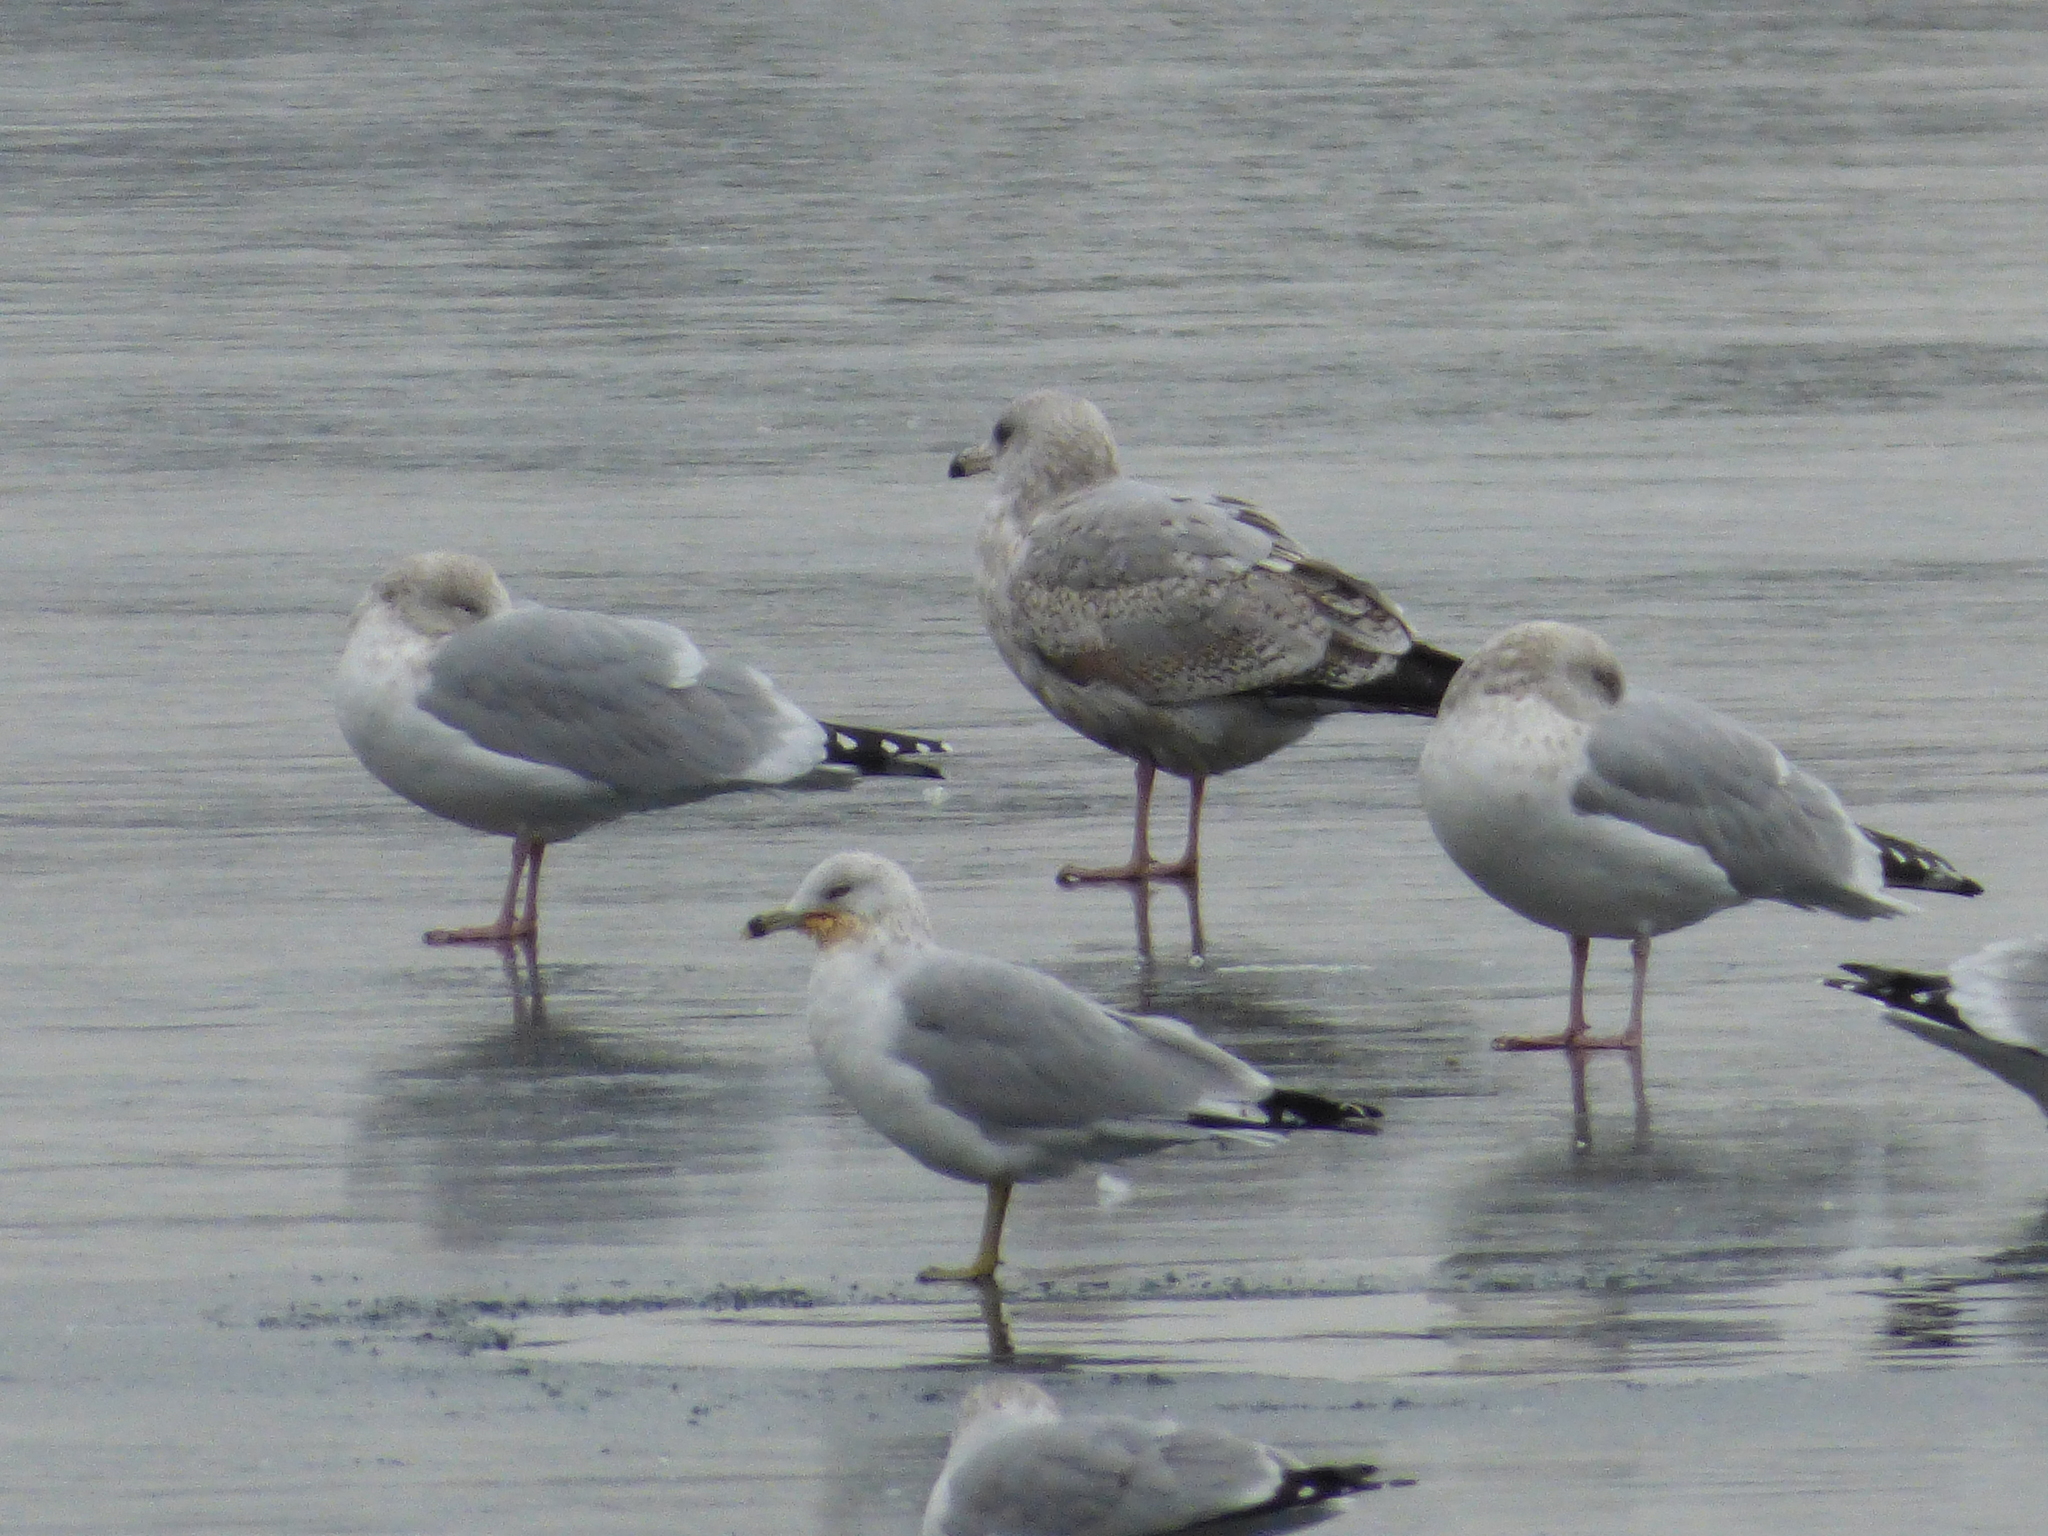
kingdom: Animalia
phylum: Chordata
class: Aves
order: Charadriiformes
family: Laridae
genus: Larus
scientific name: Larus argentatus
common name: Herring gull
